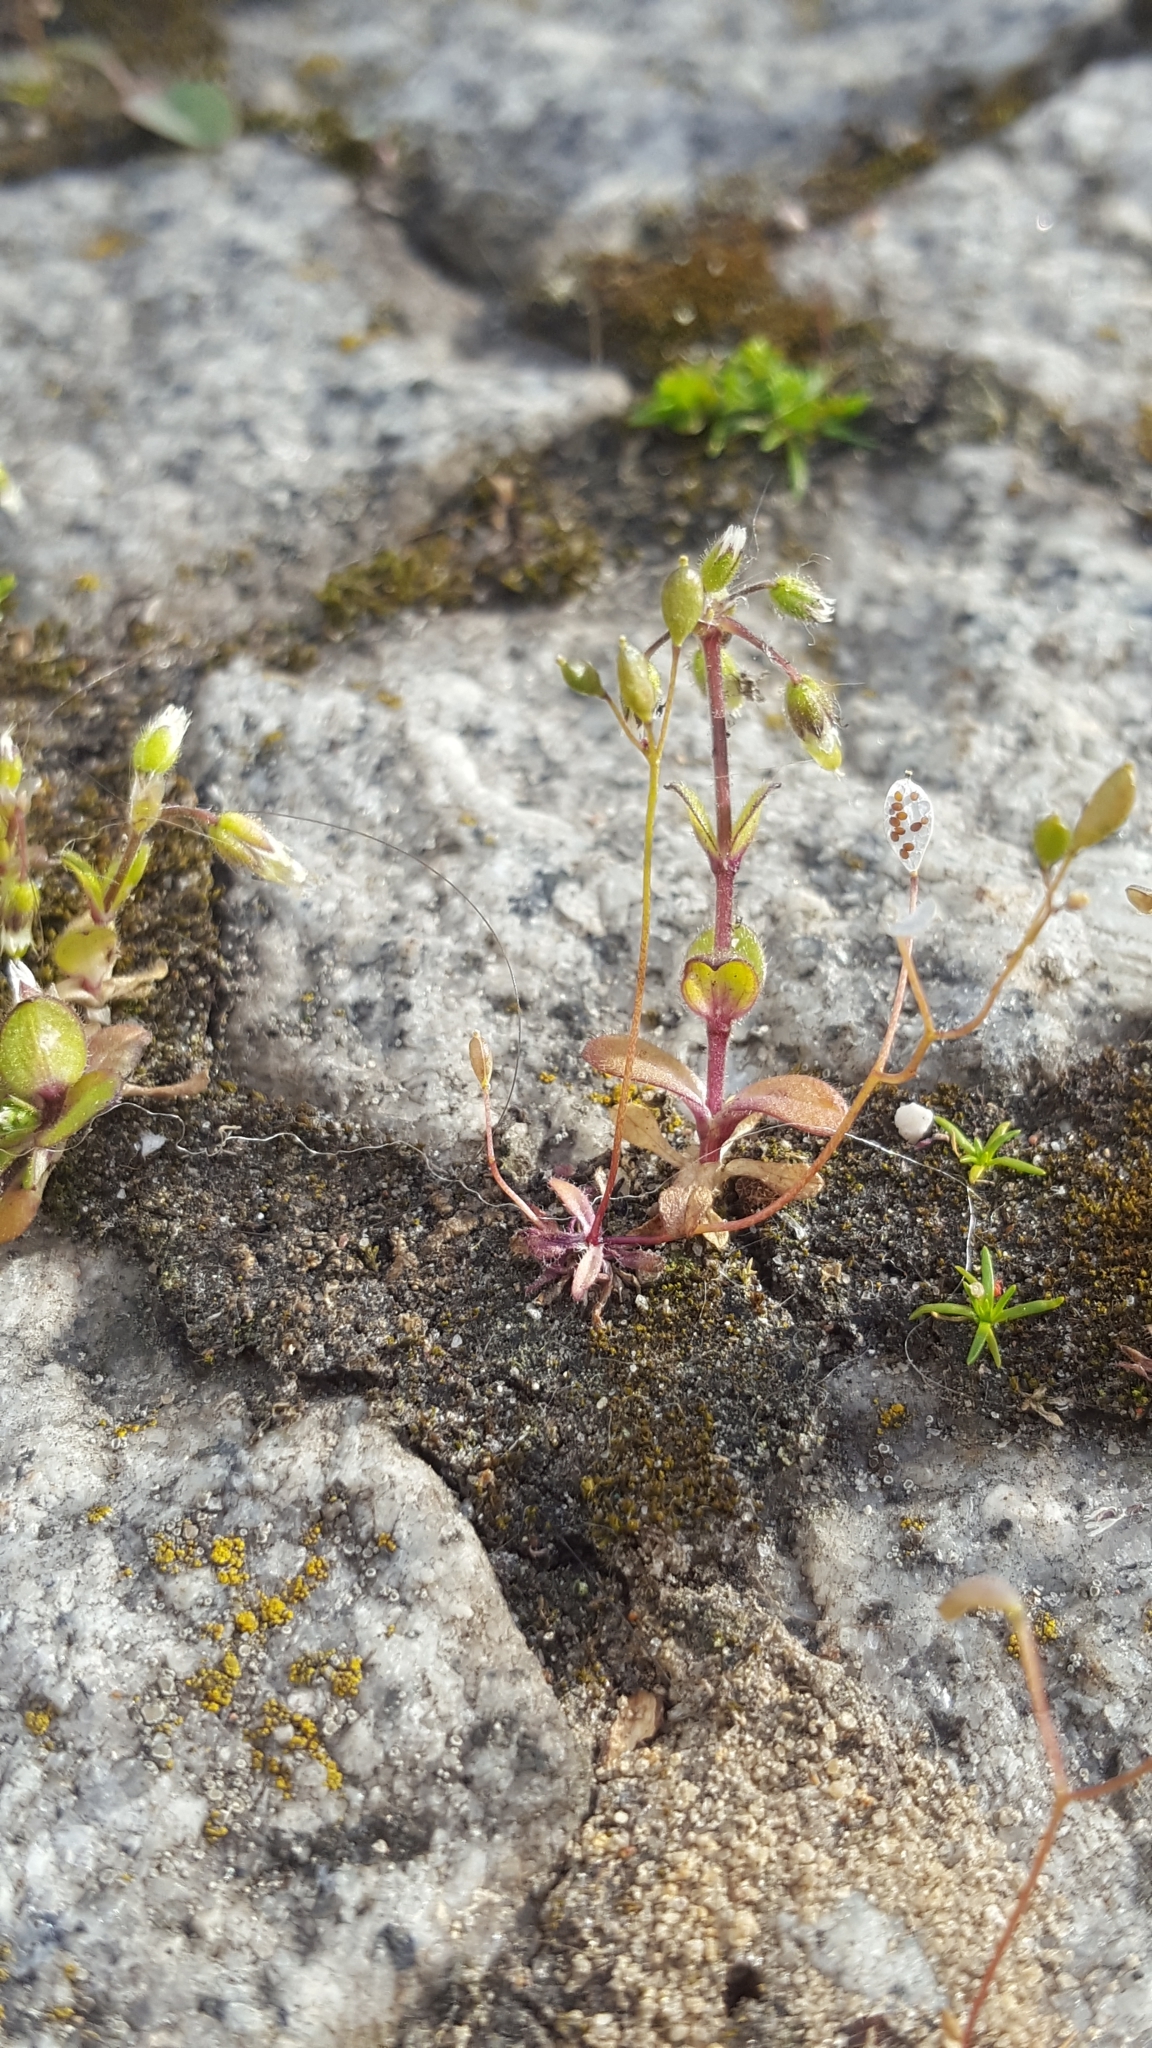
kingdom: Plantae
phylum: Tracheophyta
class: Magnoliopsida
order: Brassicales
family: Brassicaceae
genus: Draba
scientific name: Draba verna
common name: Spring draba
